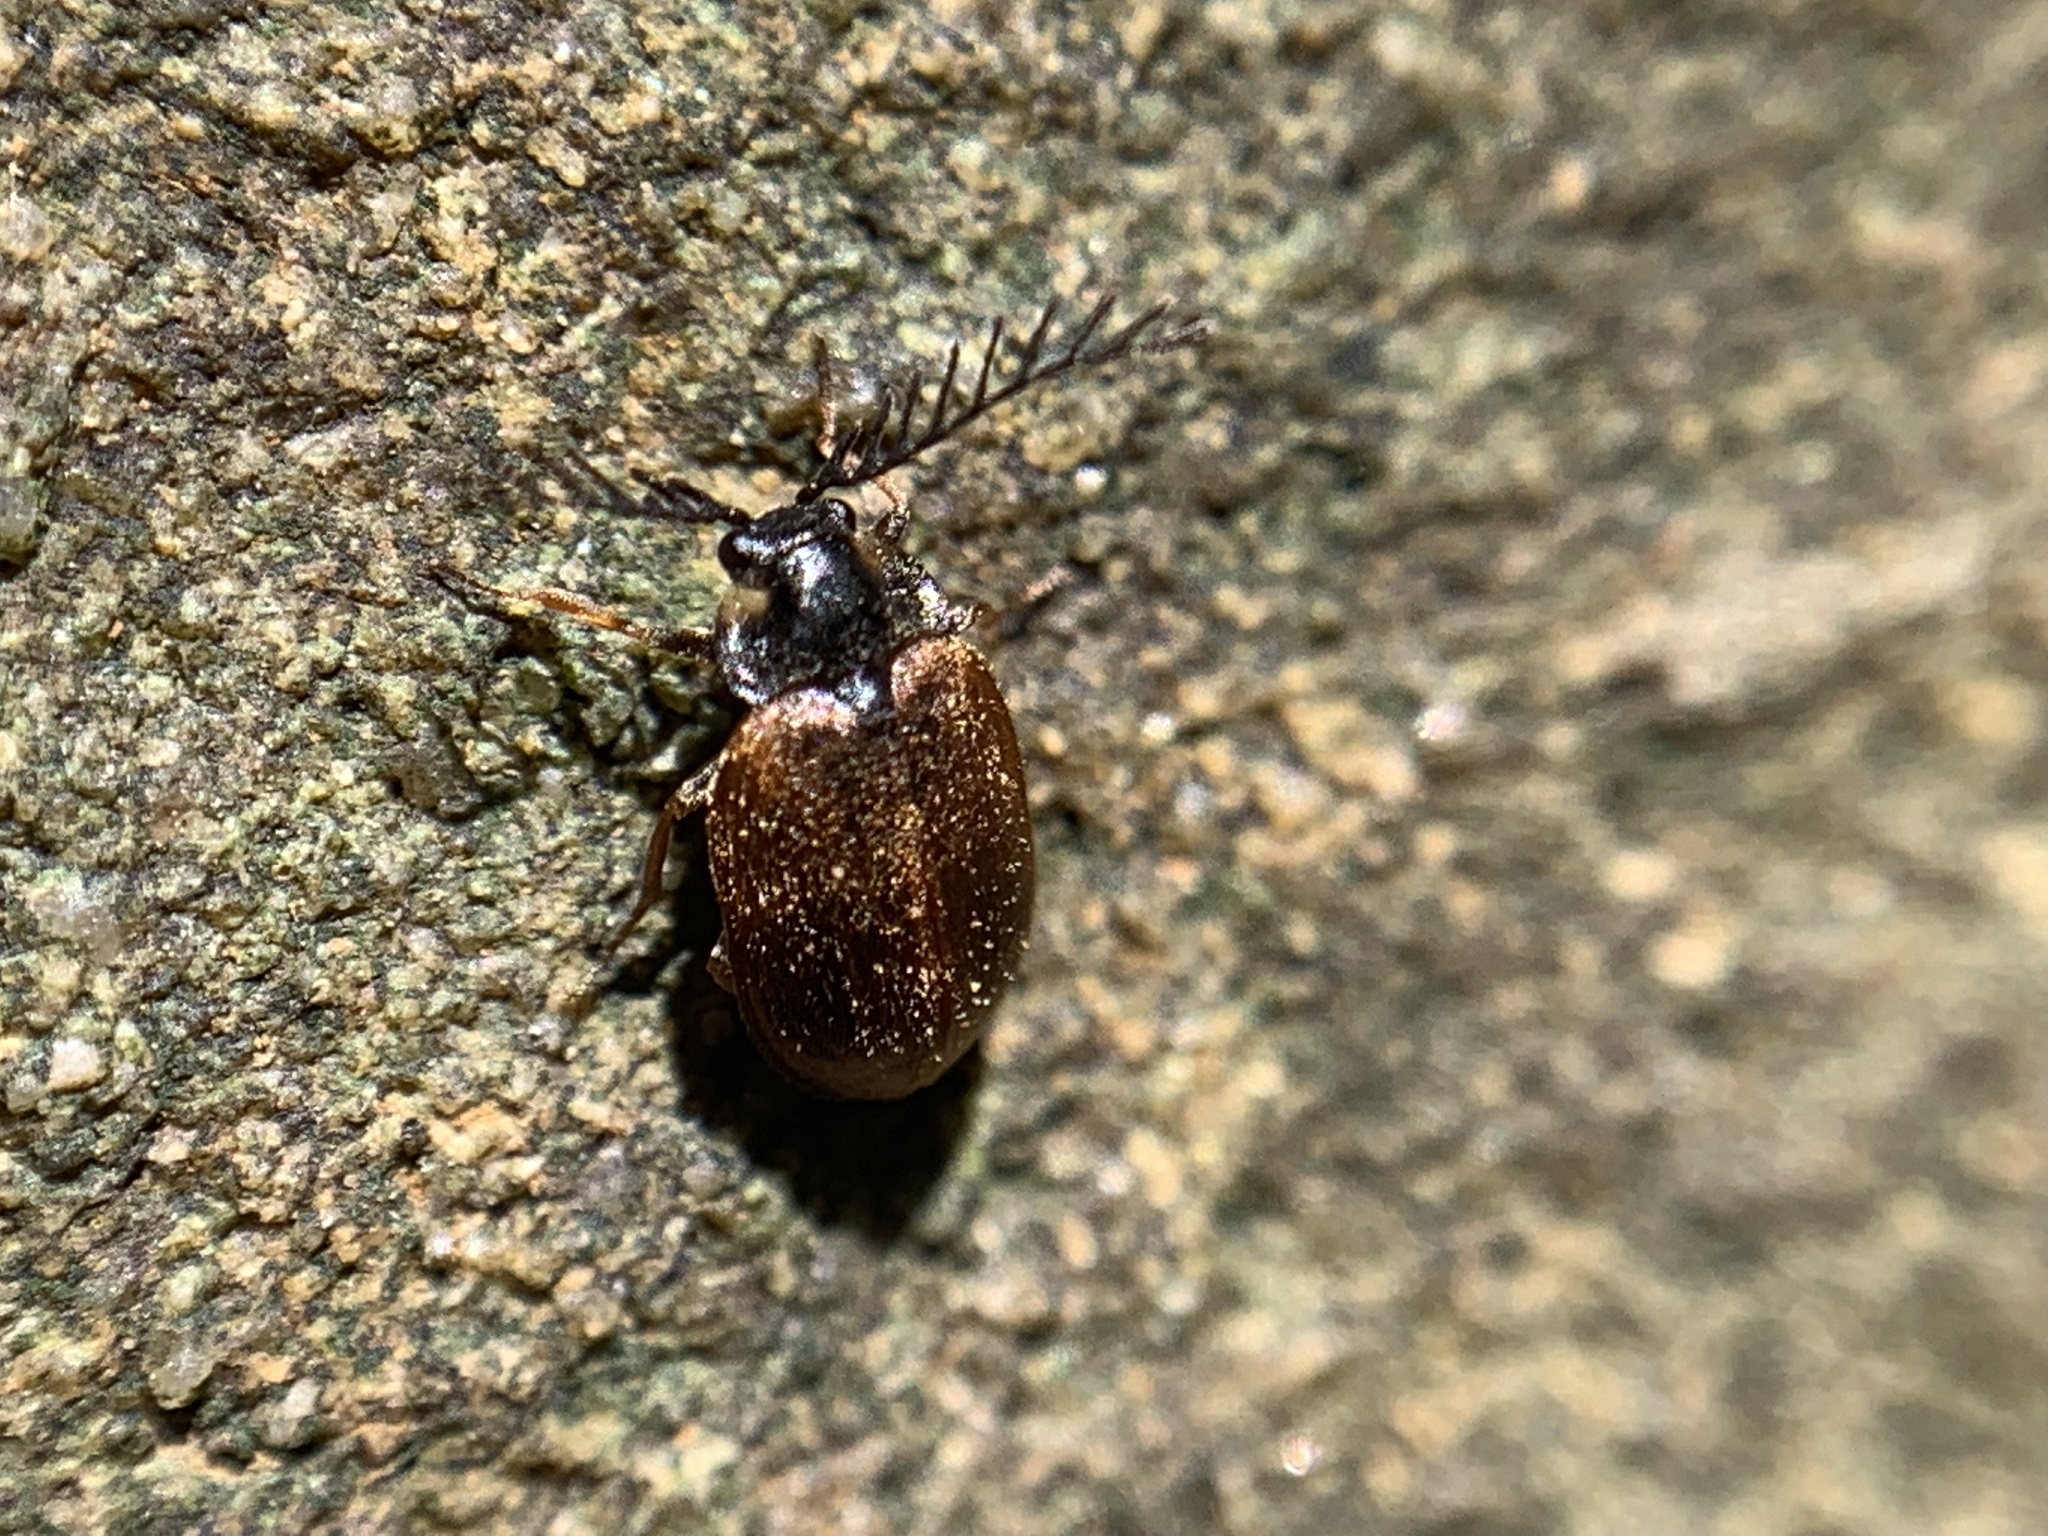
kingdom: Animalia
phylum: Arthropoda
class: Insecta
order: Coleoptera
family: Psephenidae
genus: Eubrianax
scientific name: Eubrianax edwardsii
